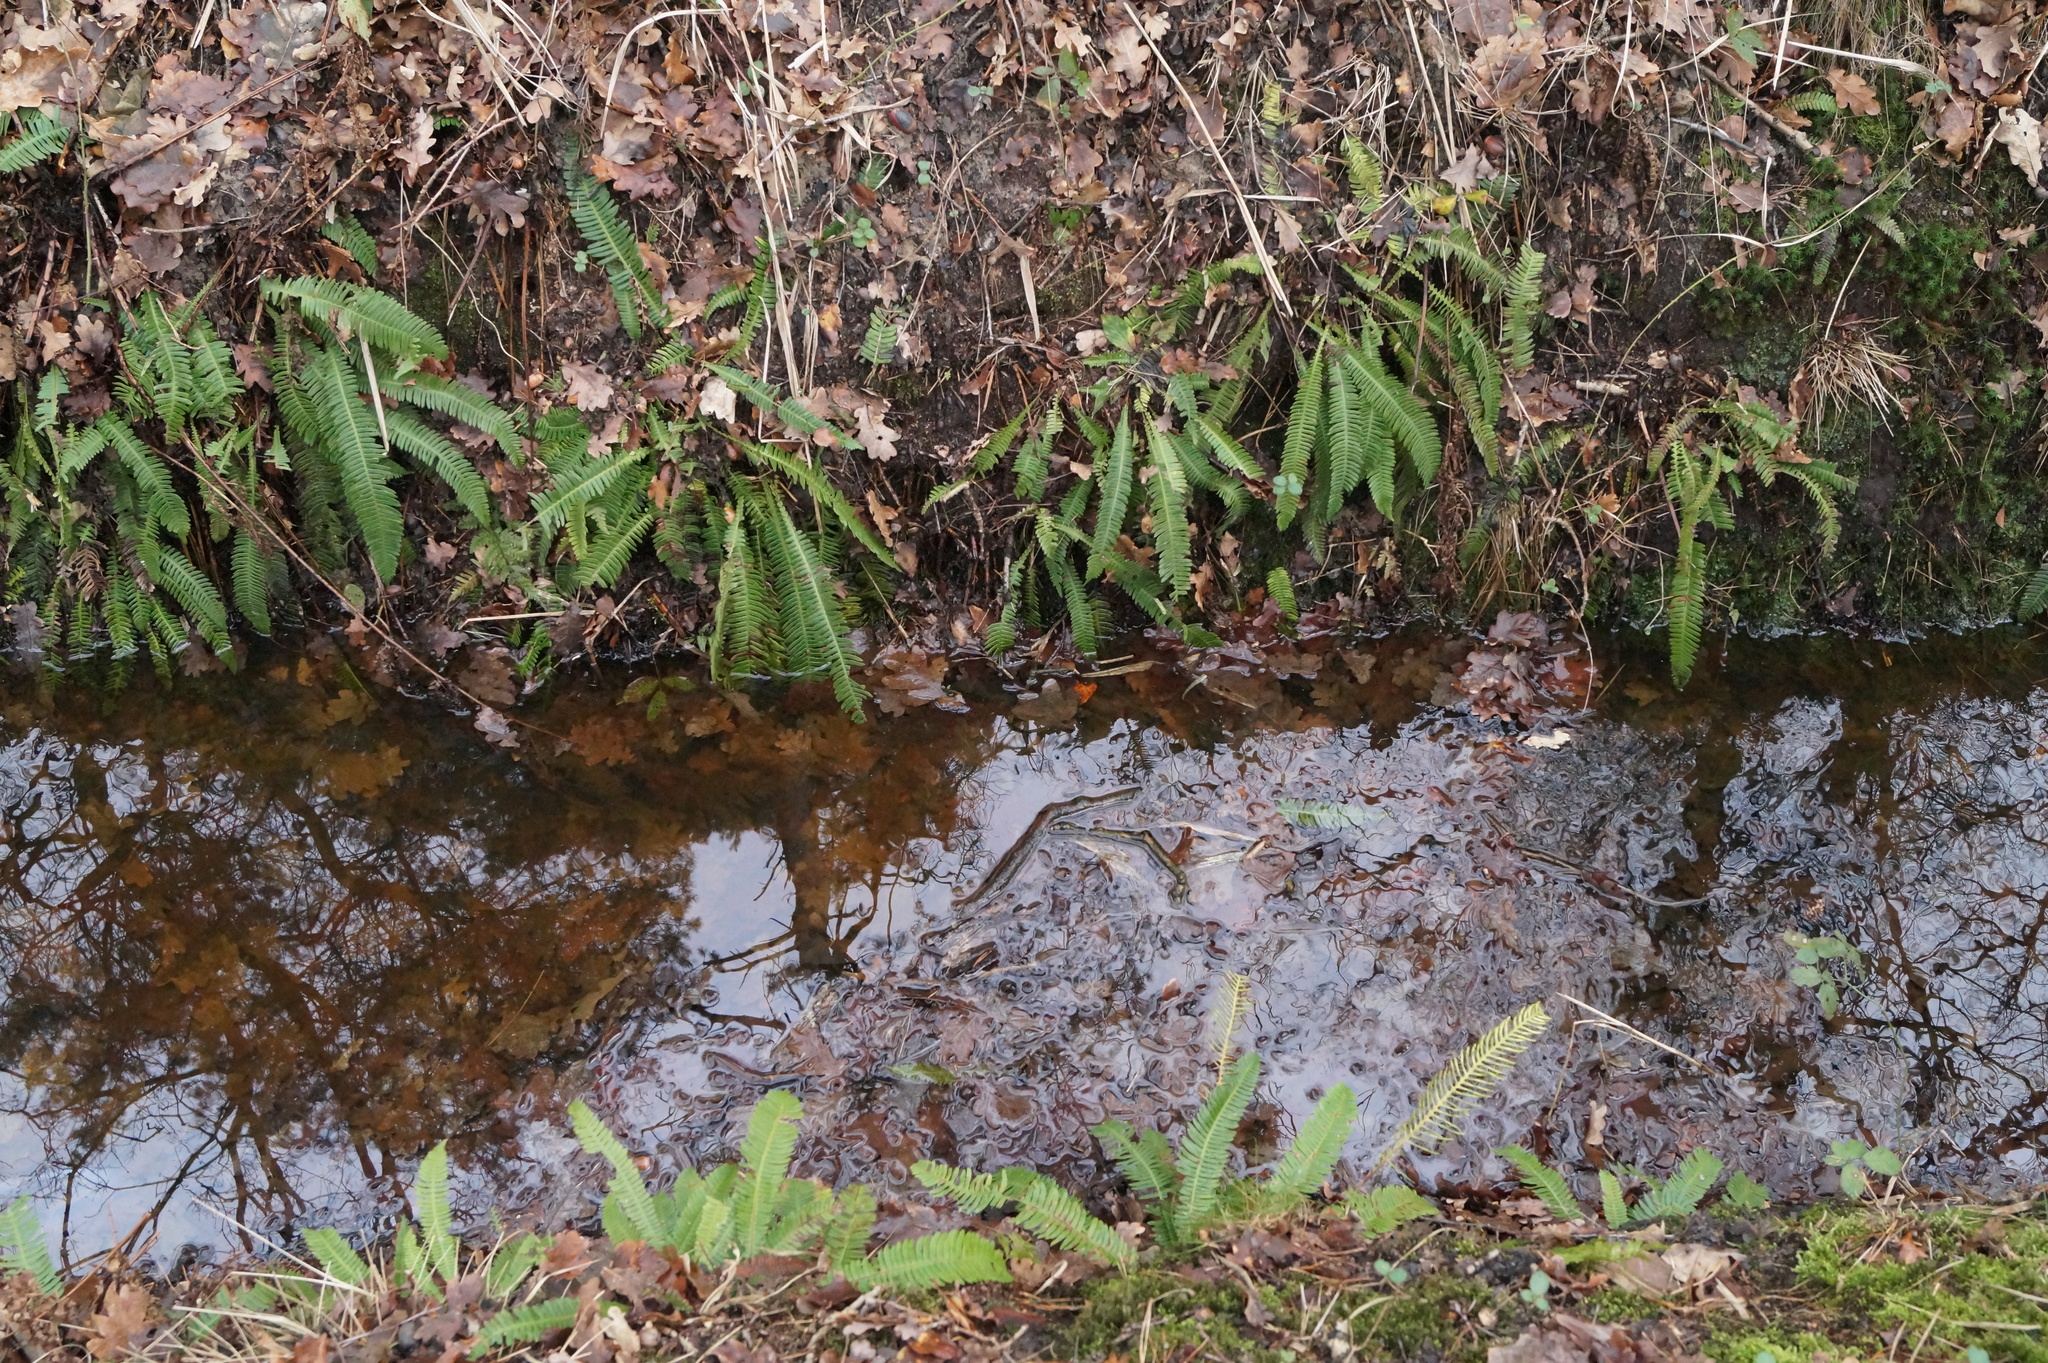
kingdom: Plantae
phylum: Tracheophyta
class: Polypodiopsida
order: Polypodiales
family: Blechnaceae
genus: Struthiopteris
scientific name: Struthiopteris spicant
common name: Deer fern
